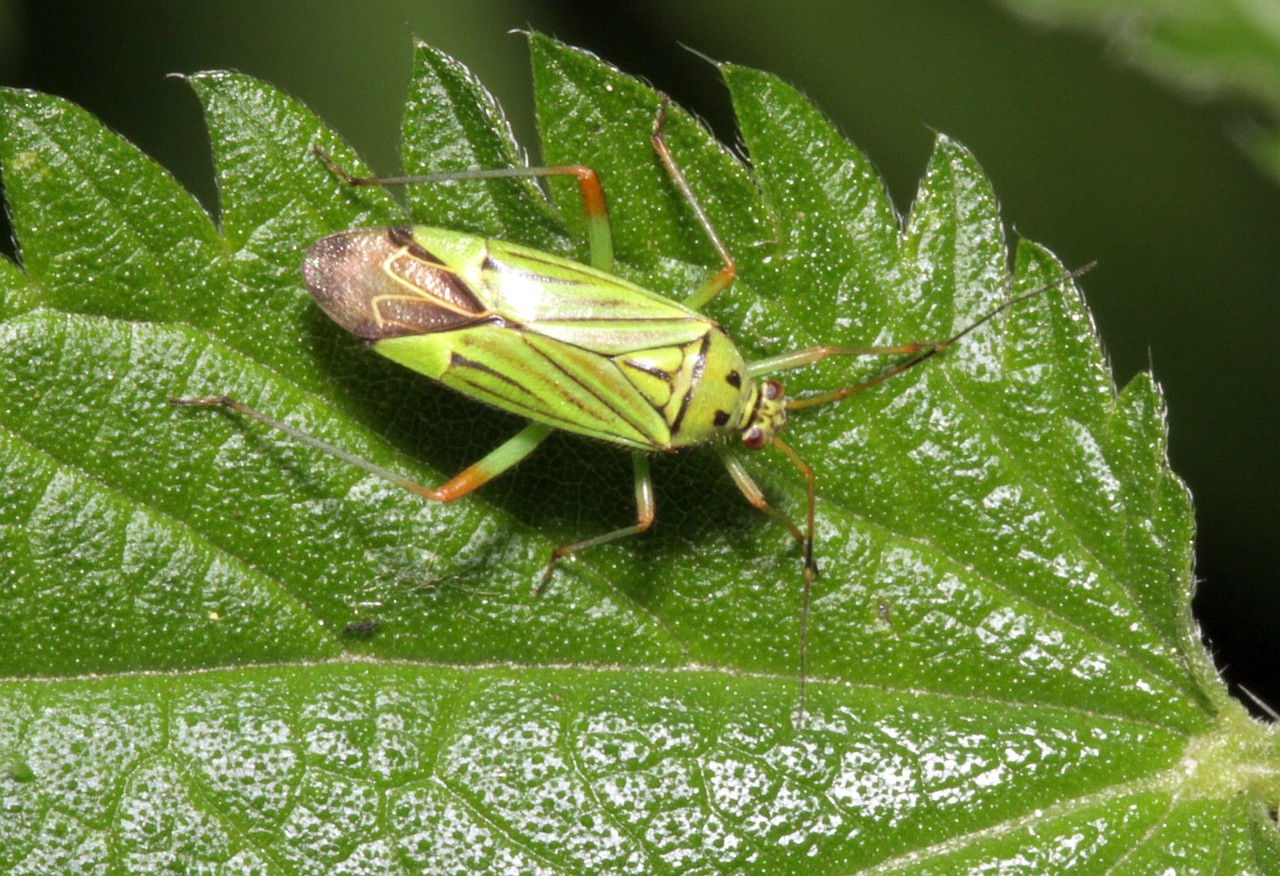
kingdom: Animalia
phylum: Arthropoda
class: Insecta
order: Hemiptera
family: Miridae
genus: Mermitelocerus
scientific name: Mermitelocerus schmidtii
